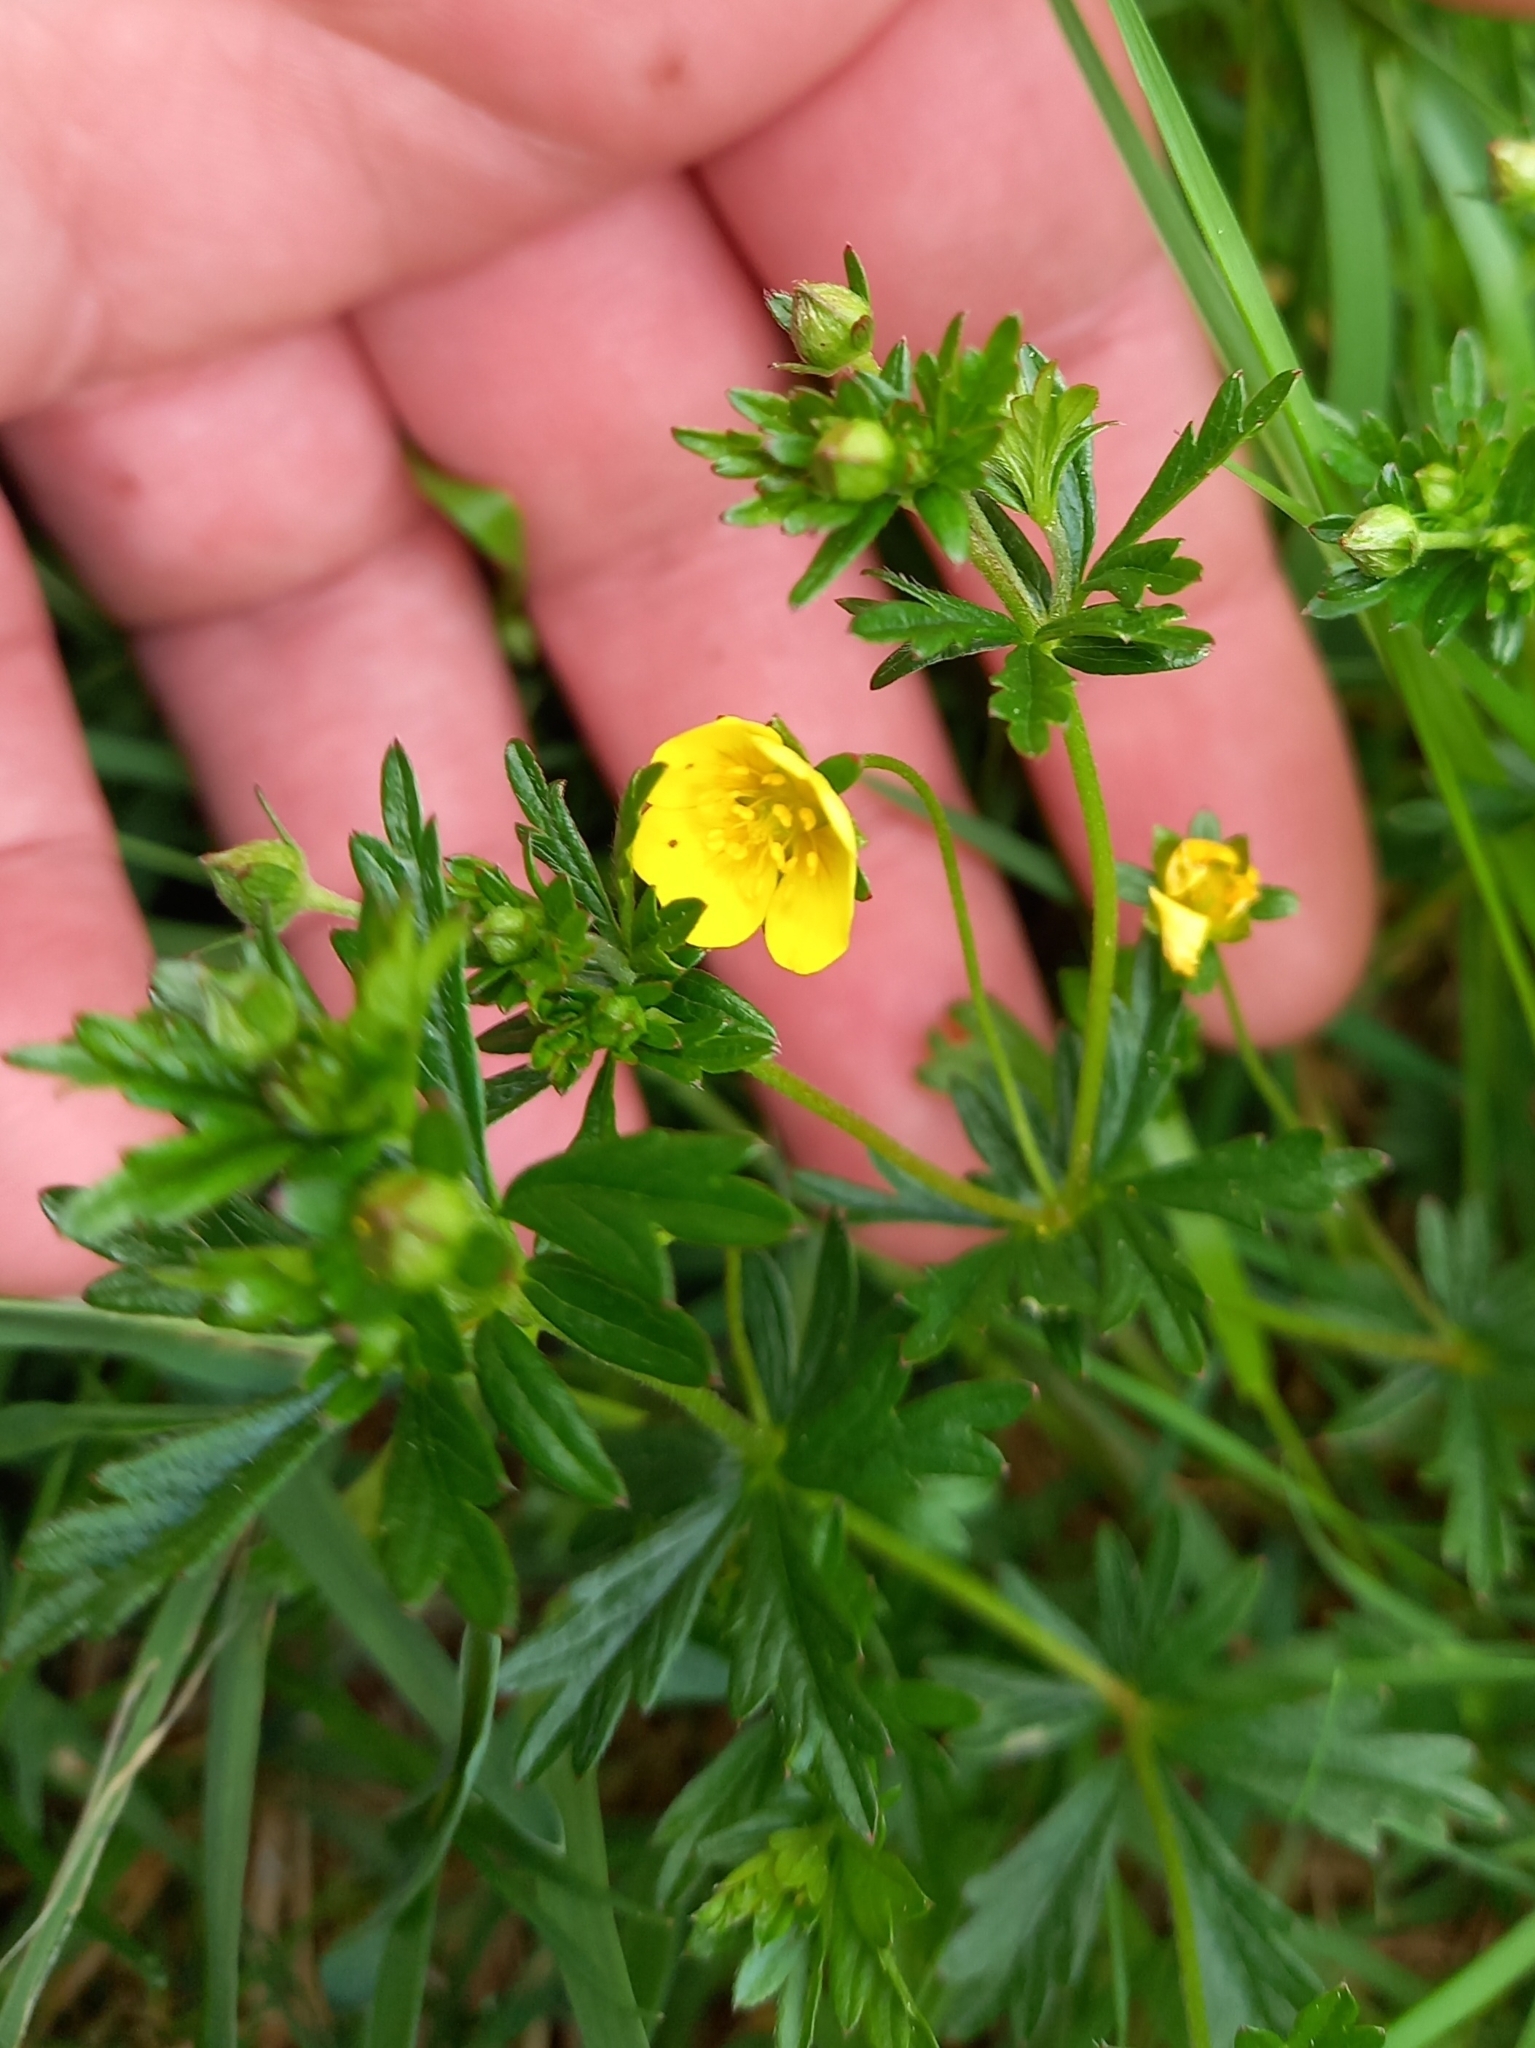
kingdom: Plantae
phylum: Tracheophyta
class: Magnoliopsida
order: Rosales
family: Rosaceae
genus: Potentilla
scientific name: Potentilla erecta
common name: Tormentil
